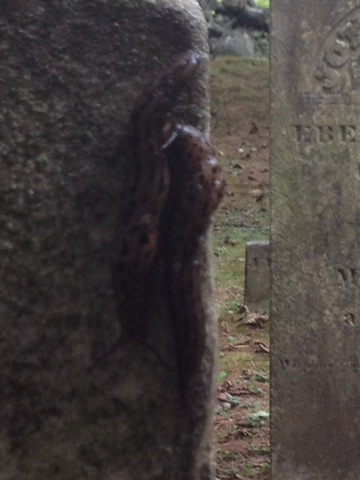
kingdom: Animalia
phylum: Mollusca
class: Gastropoda
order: Stylommatophora
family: Limacidae
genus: Limax
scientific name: Limax maximus
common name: Great grey slug
